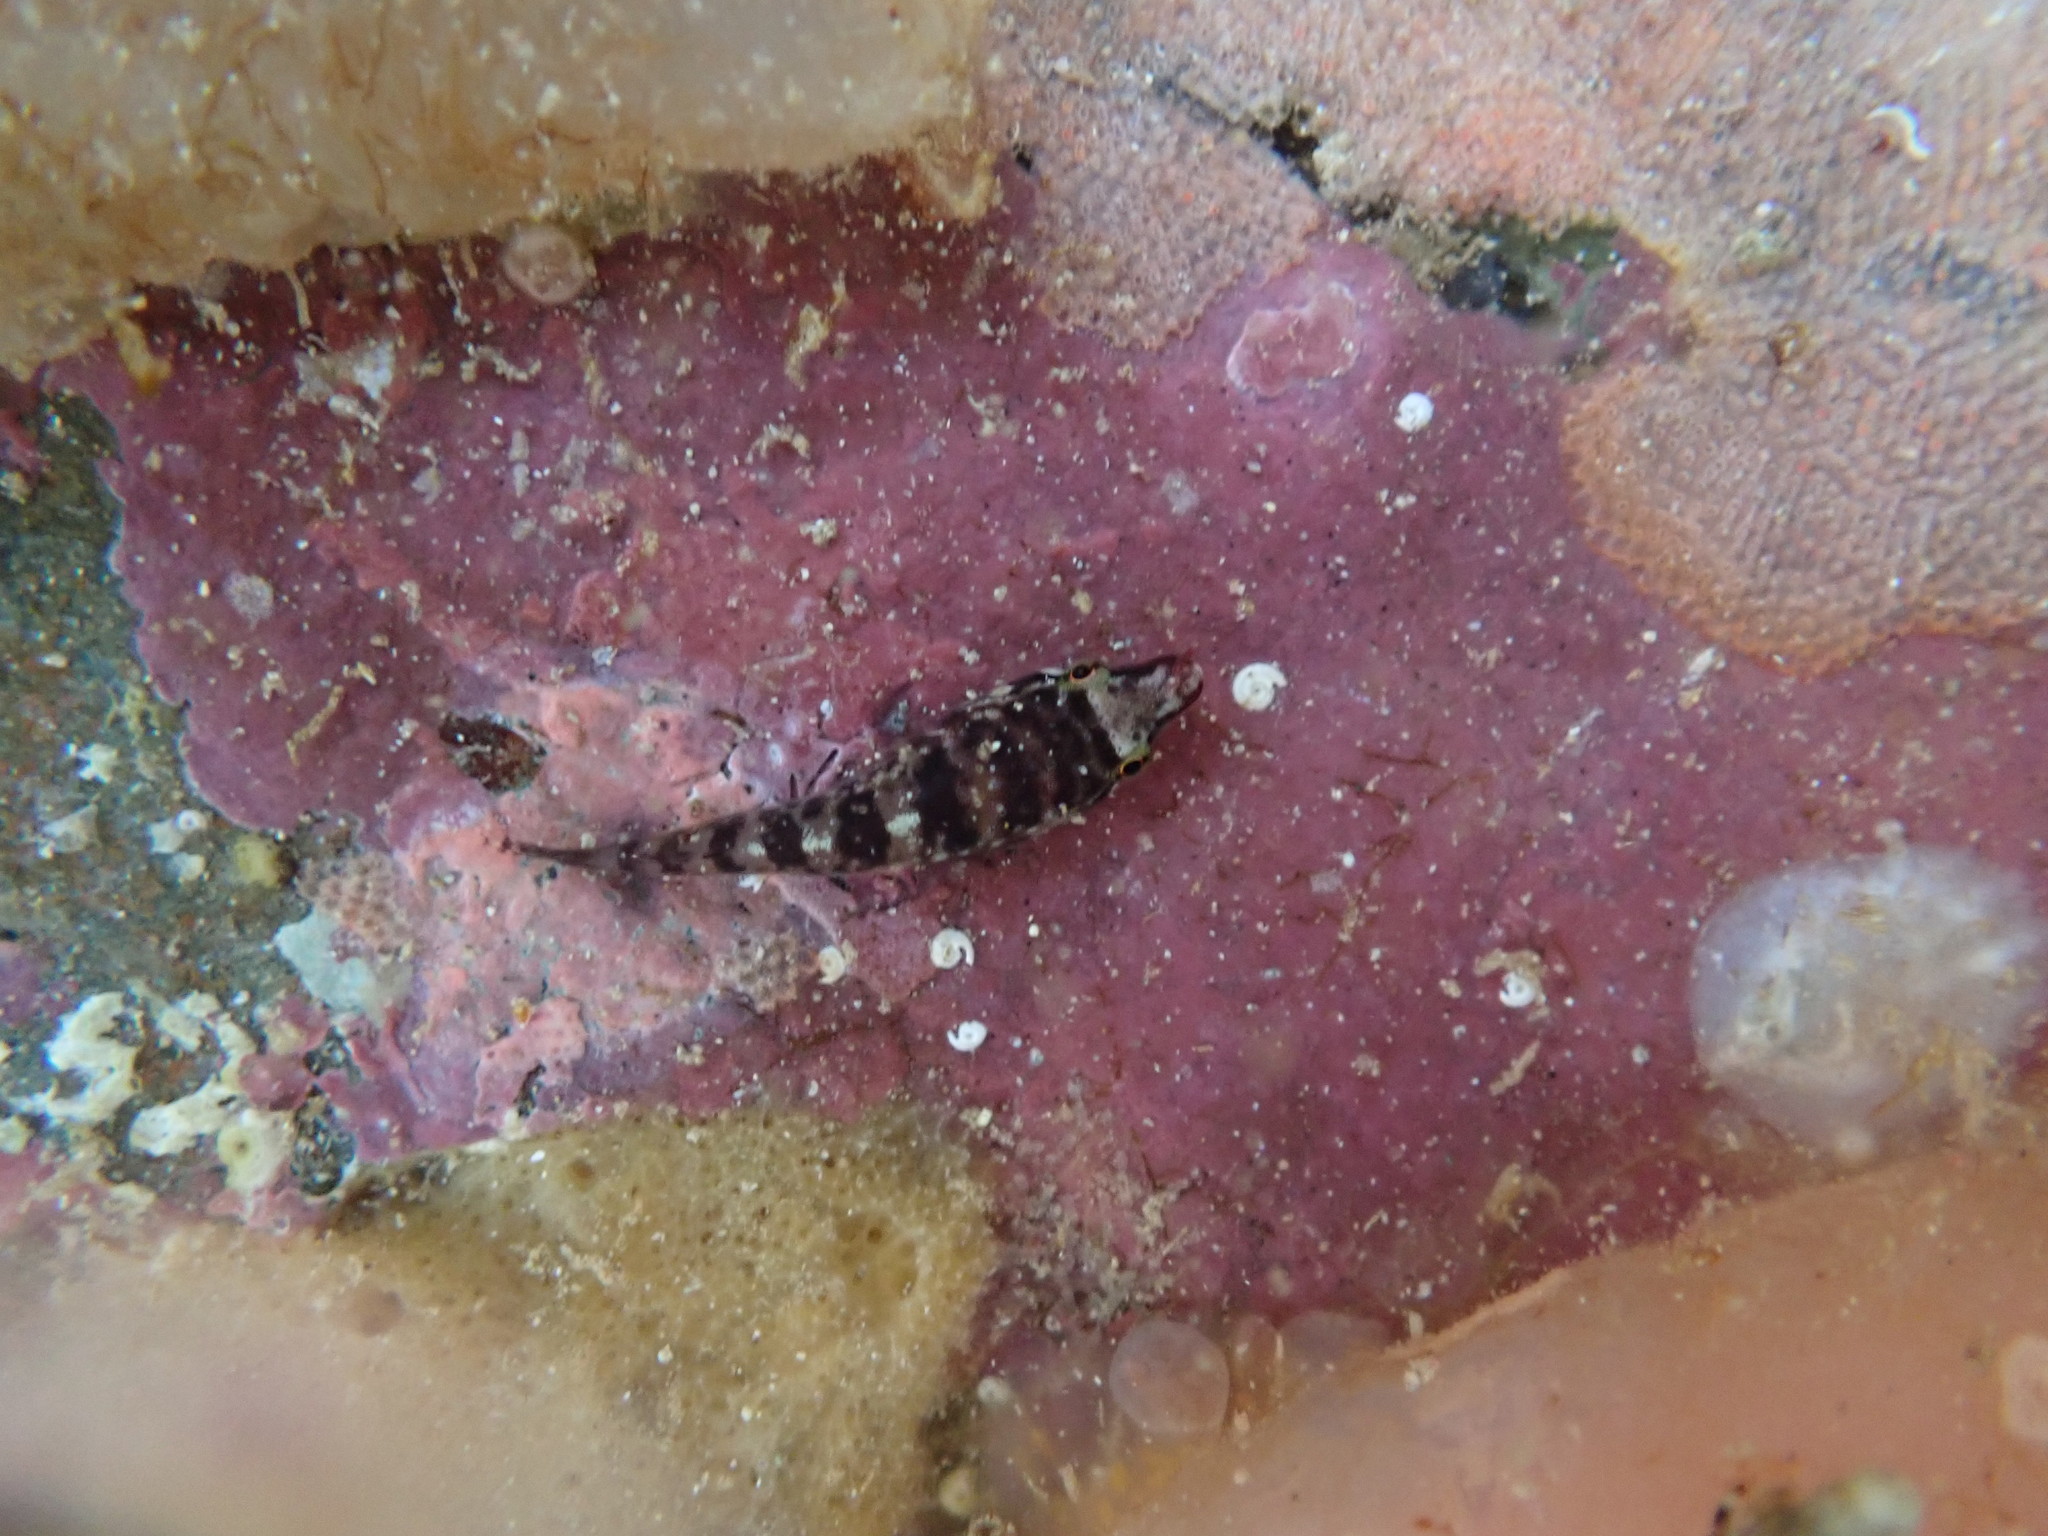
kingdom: Animalia
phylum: Chordata
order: Gobiesociformes
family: Gobiesocidae
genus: Dellichthys
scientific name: Dellichthys morelandi
